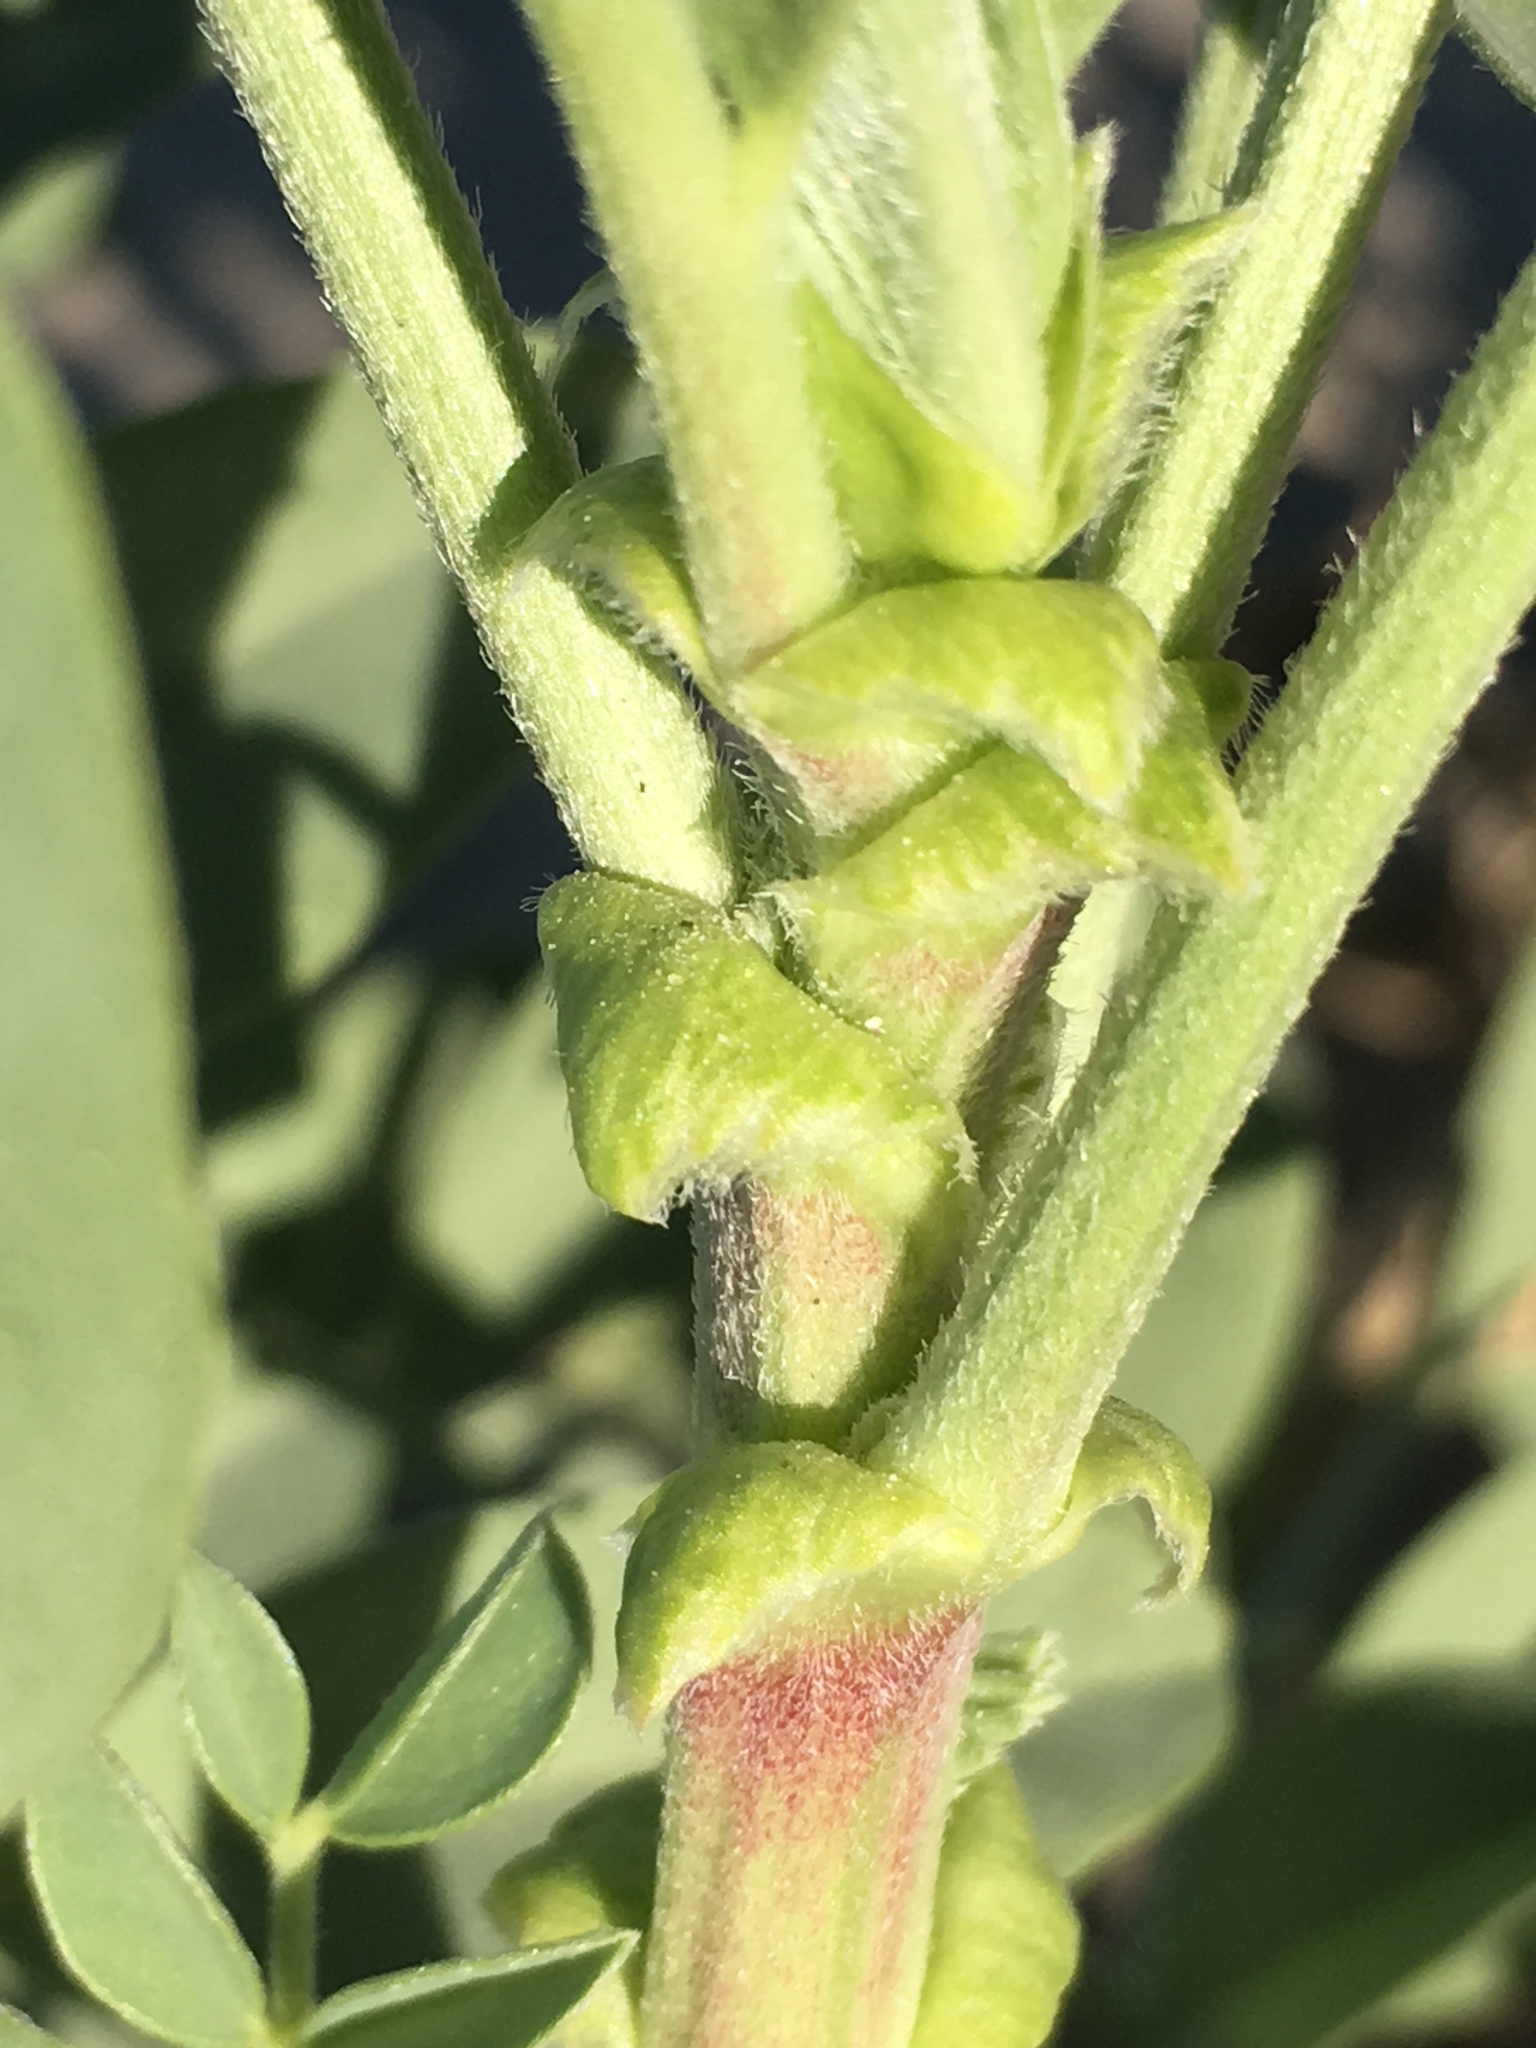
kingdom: Plantae
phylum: Tracheophyta
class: Magnoliopsida
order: Fabales
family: Fabaceae
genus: Astragalus
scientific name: Astragalus crotalariae
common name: Salton milkvetch
